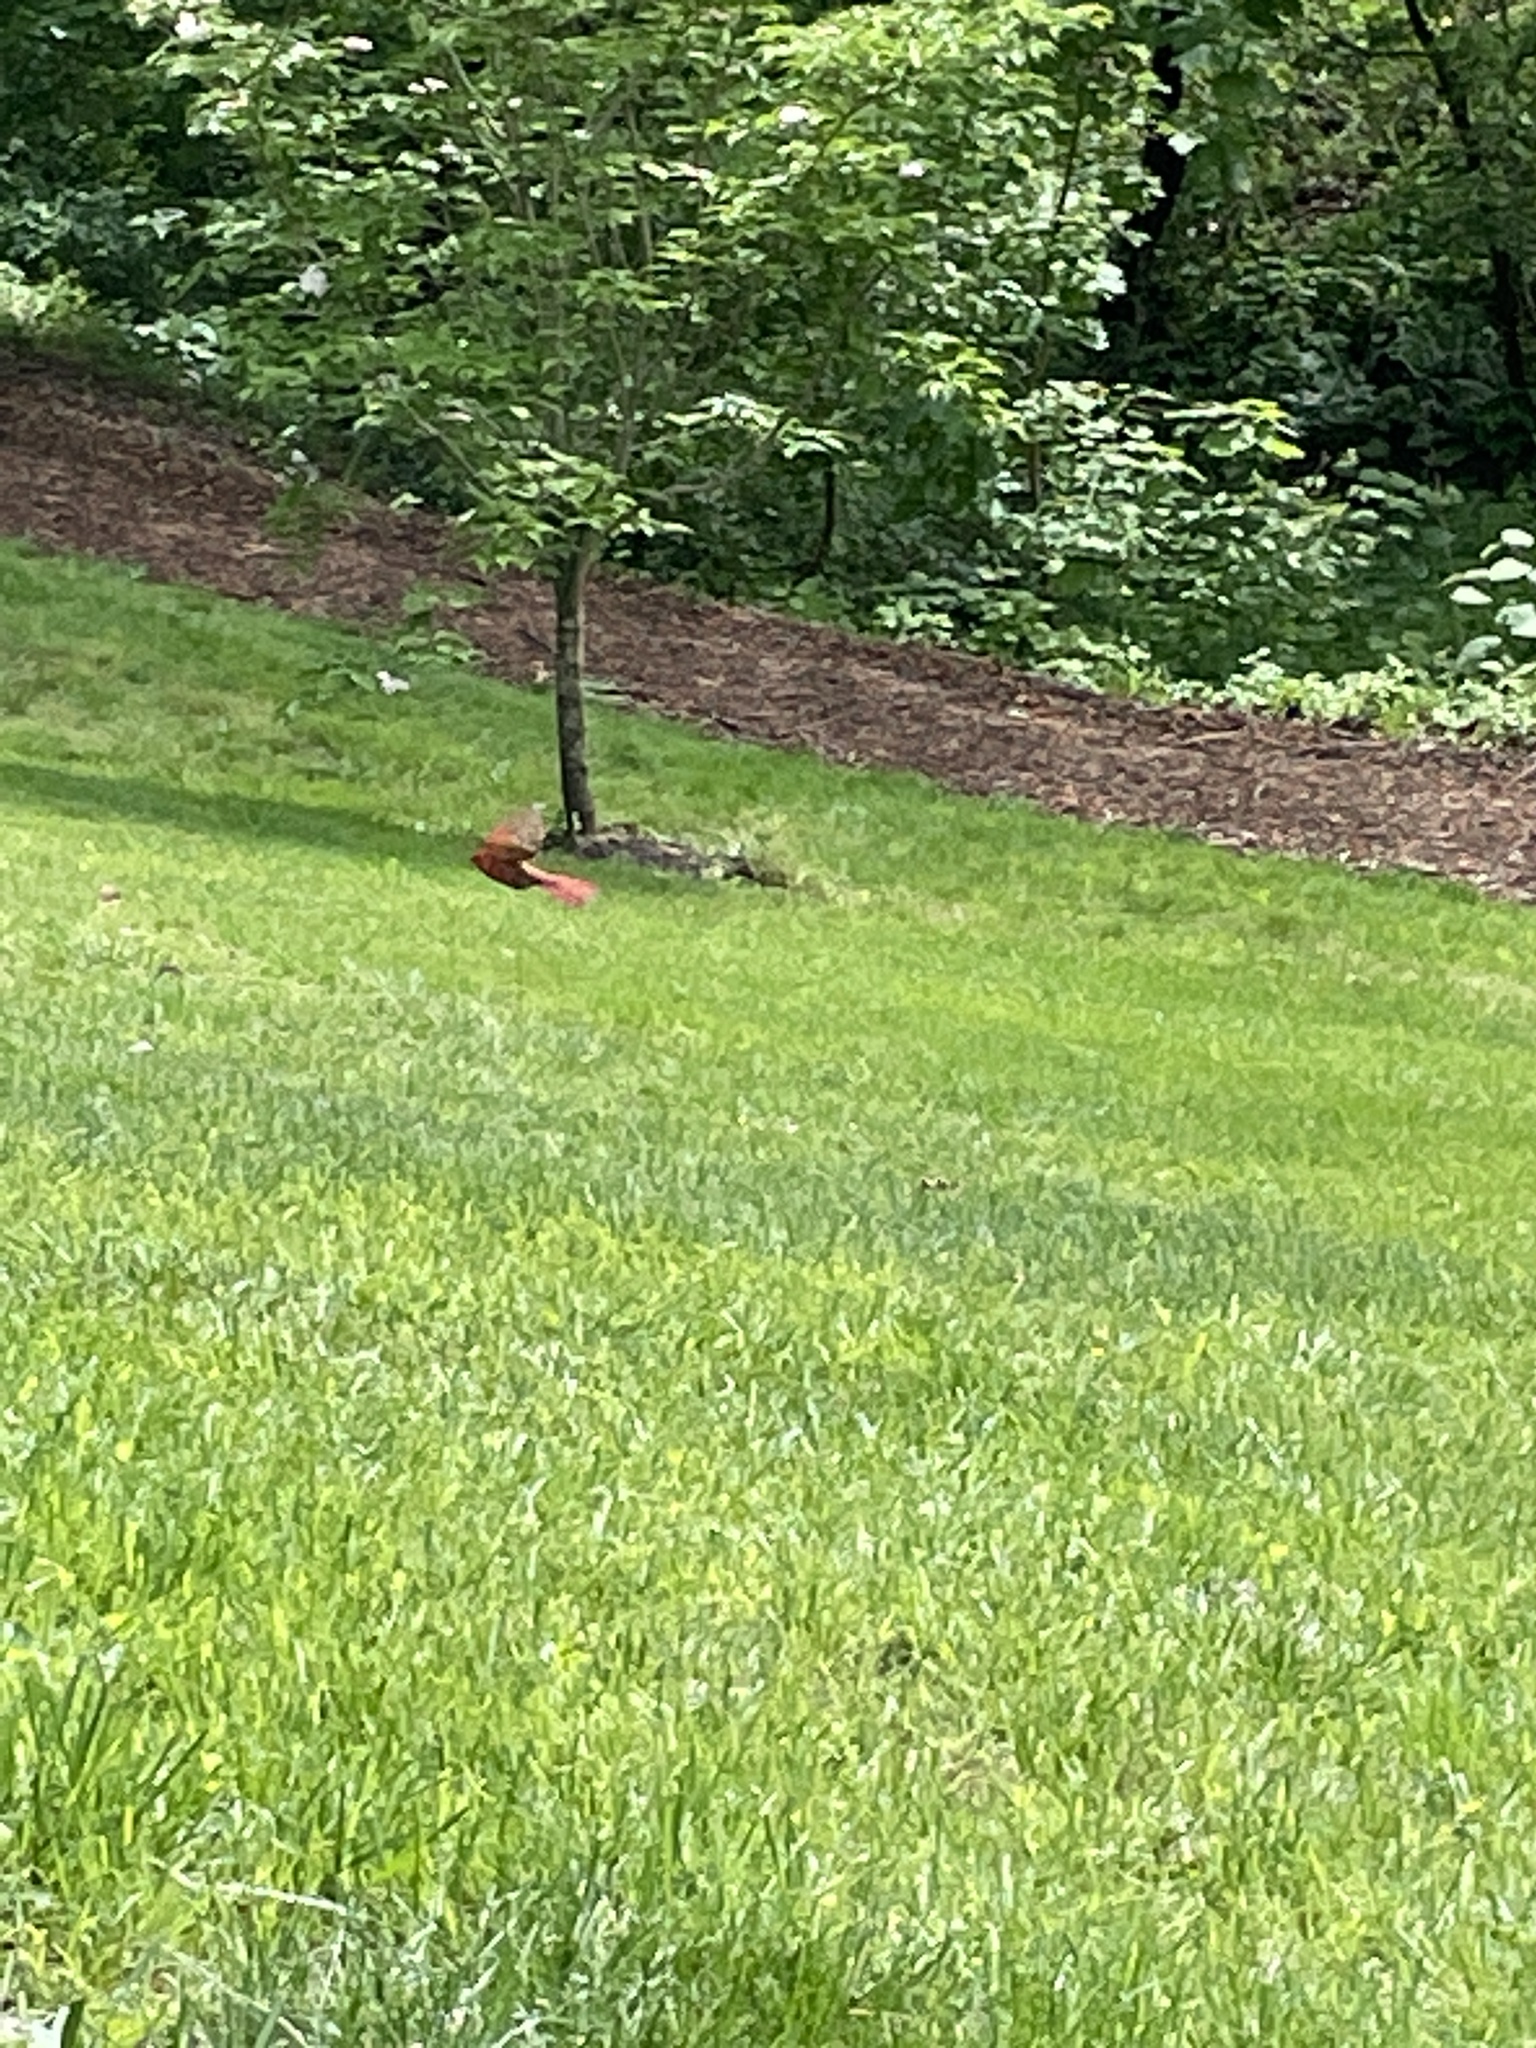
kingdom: Animalia
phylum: Chordata
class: Aves
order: Passeriformes
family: Cardinalidae
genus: Cardinalis
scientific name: Cardinalis cardinalis
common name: Northern cardinal
